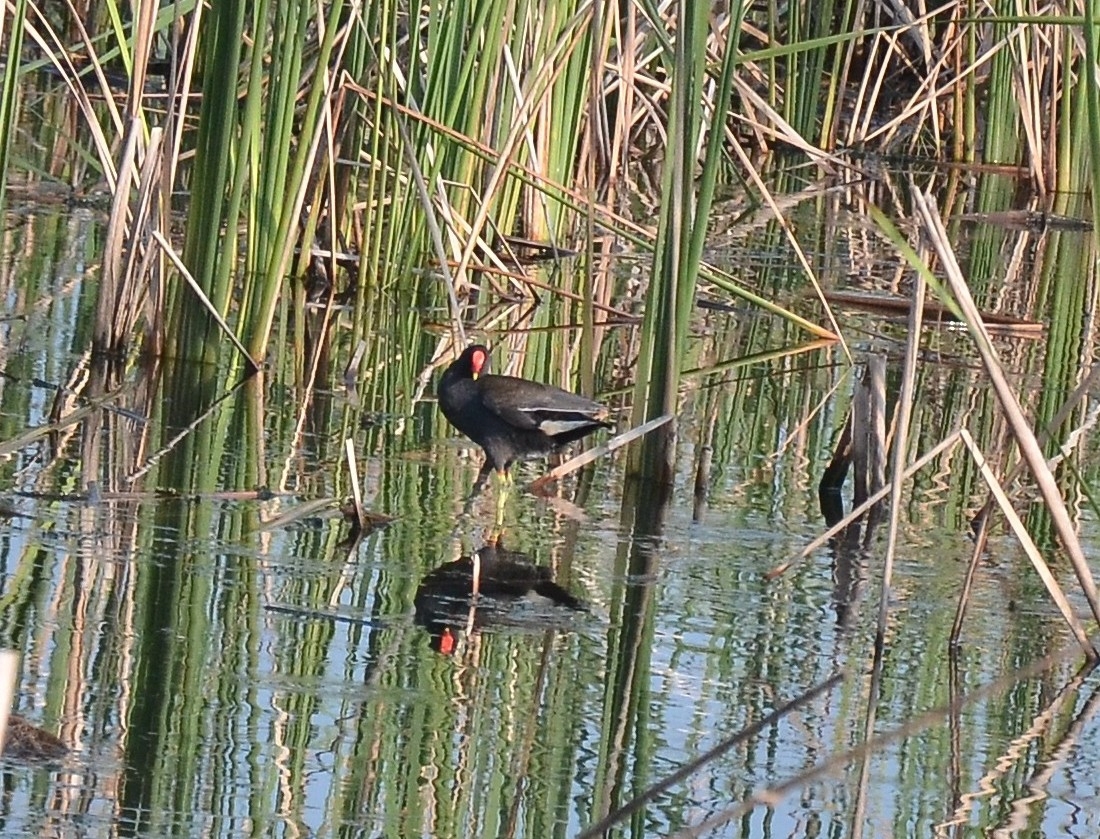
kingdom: Animalia
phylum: Chordata
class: Aves
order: Gruiformes
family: Rallidae
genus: Gallinula
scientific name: Gallinula chloropus
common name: Common moorhen
